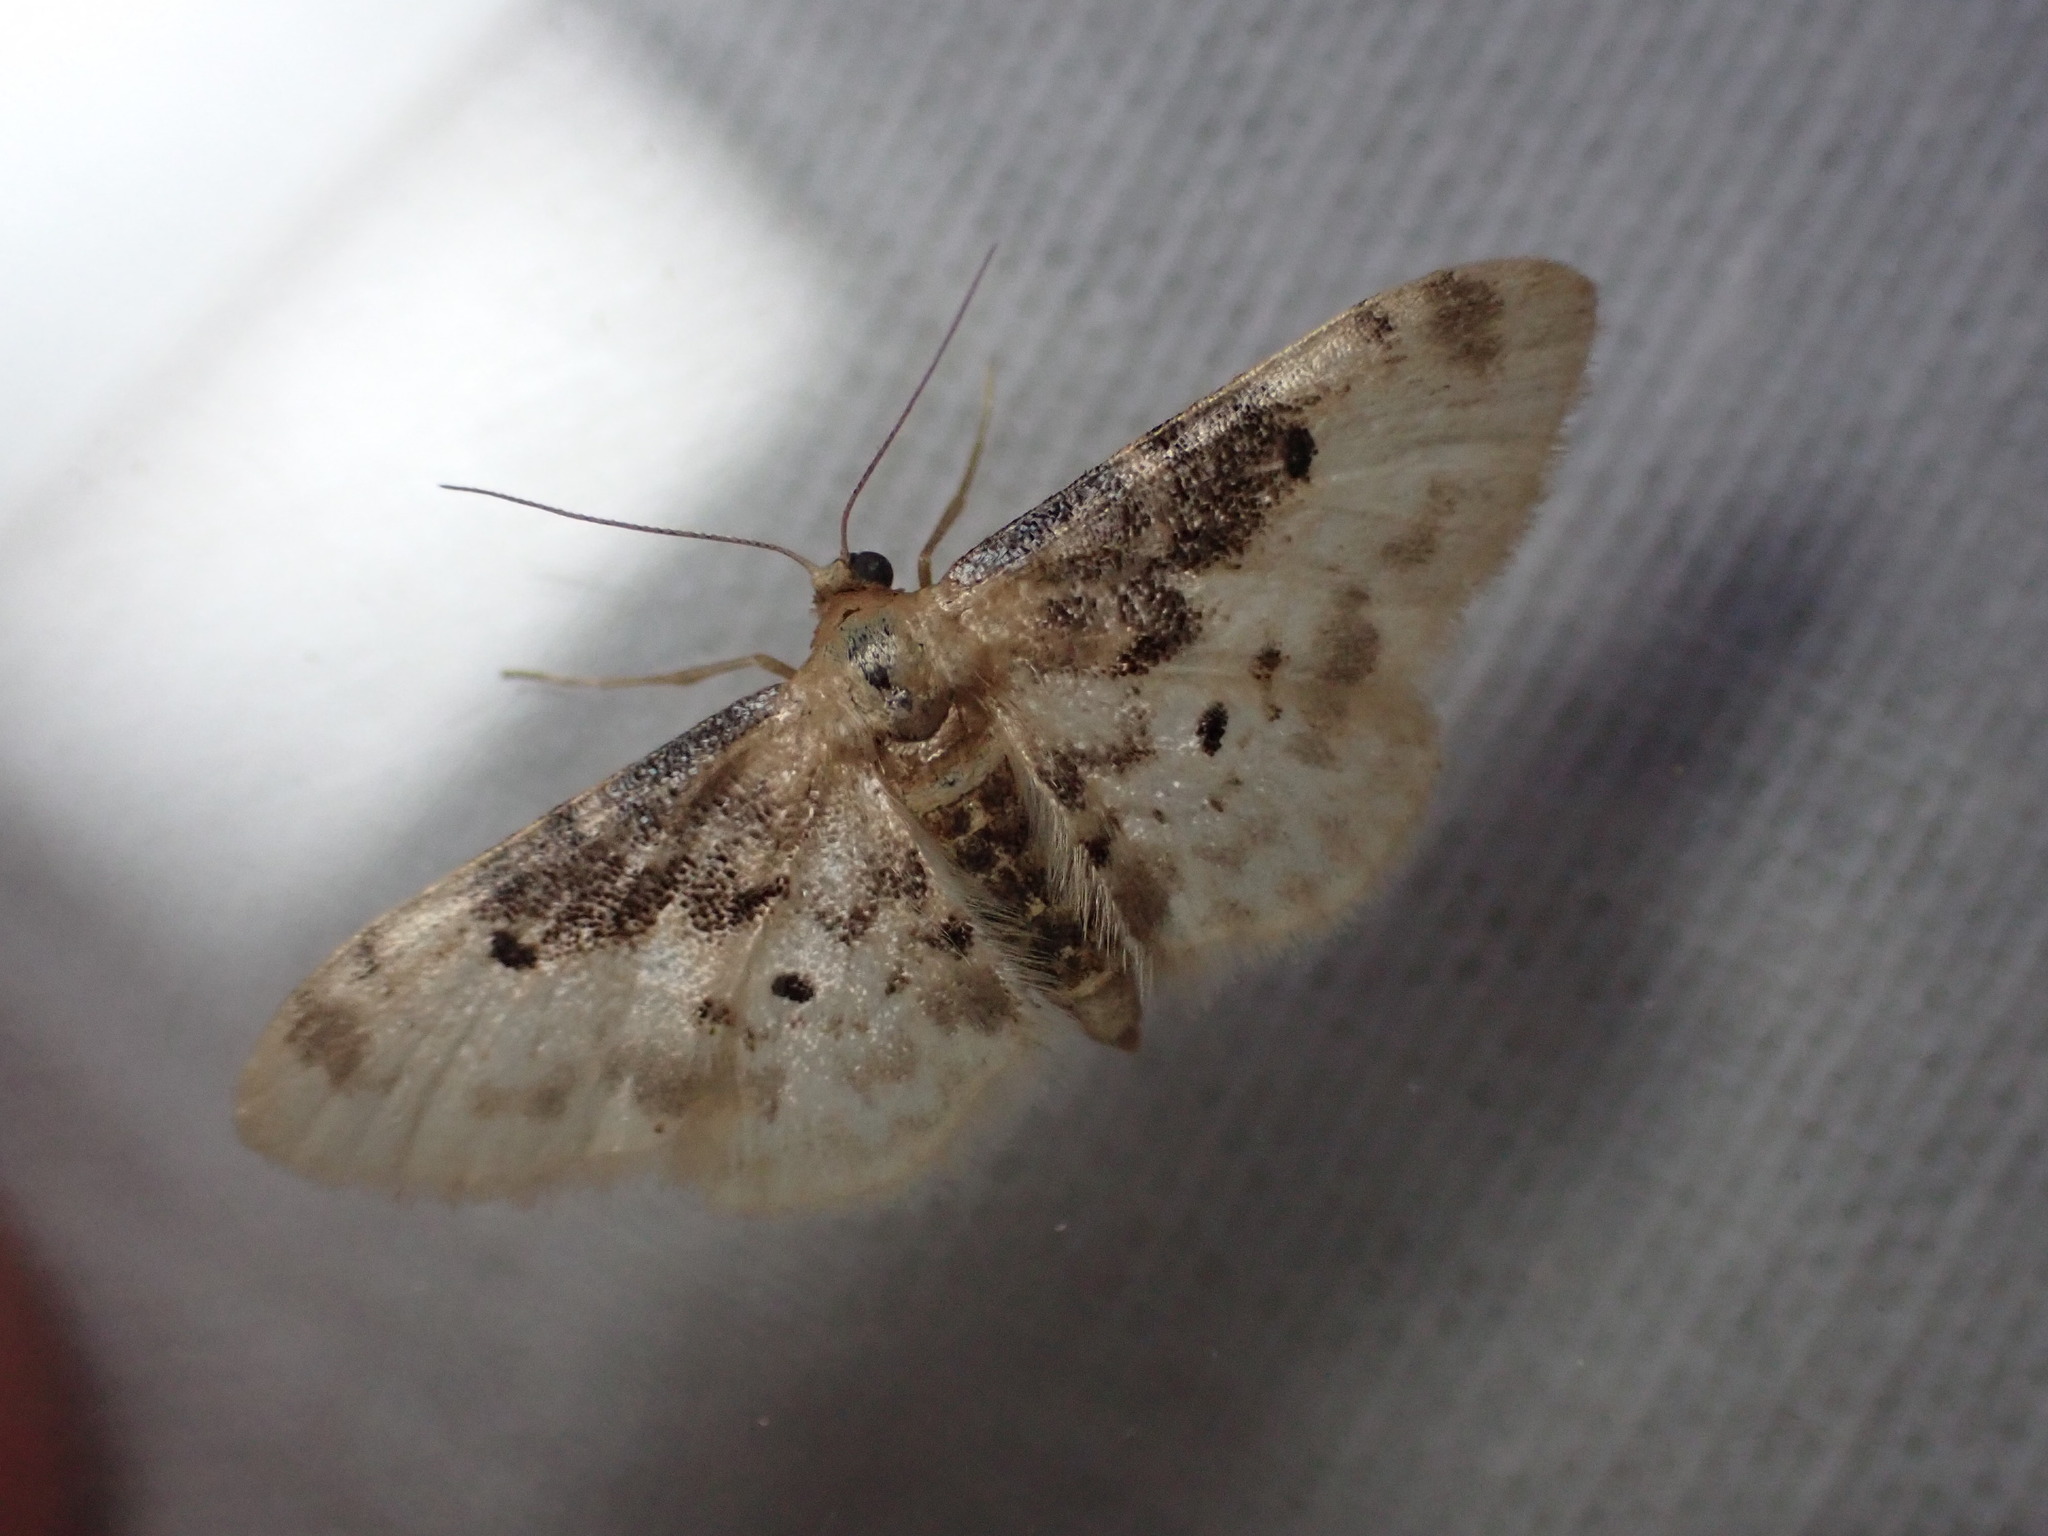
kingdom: Animalia
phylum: Arthropoda
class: Insecta
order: Lepidoptera
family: Geometridae
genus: Idaea
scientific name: Idaea filicata
